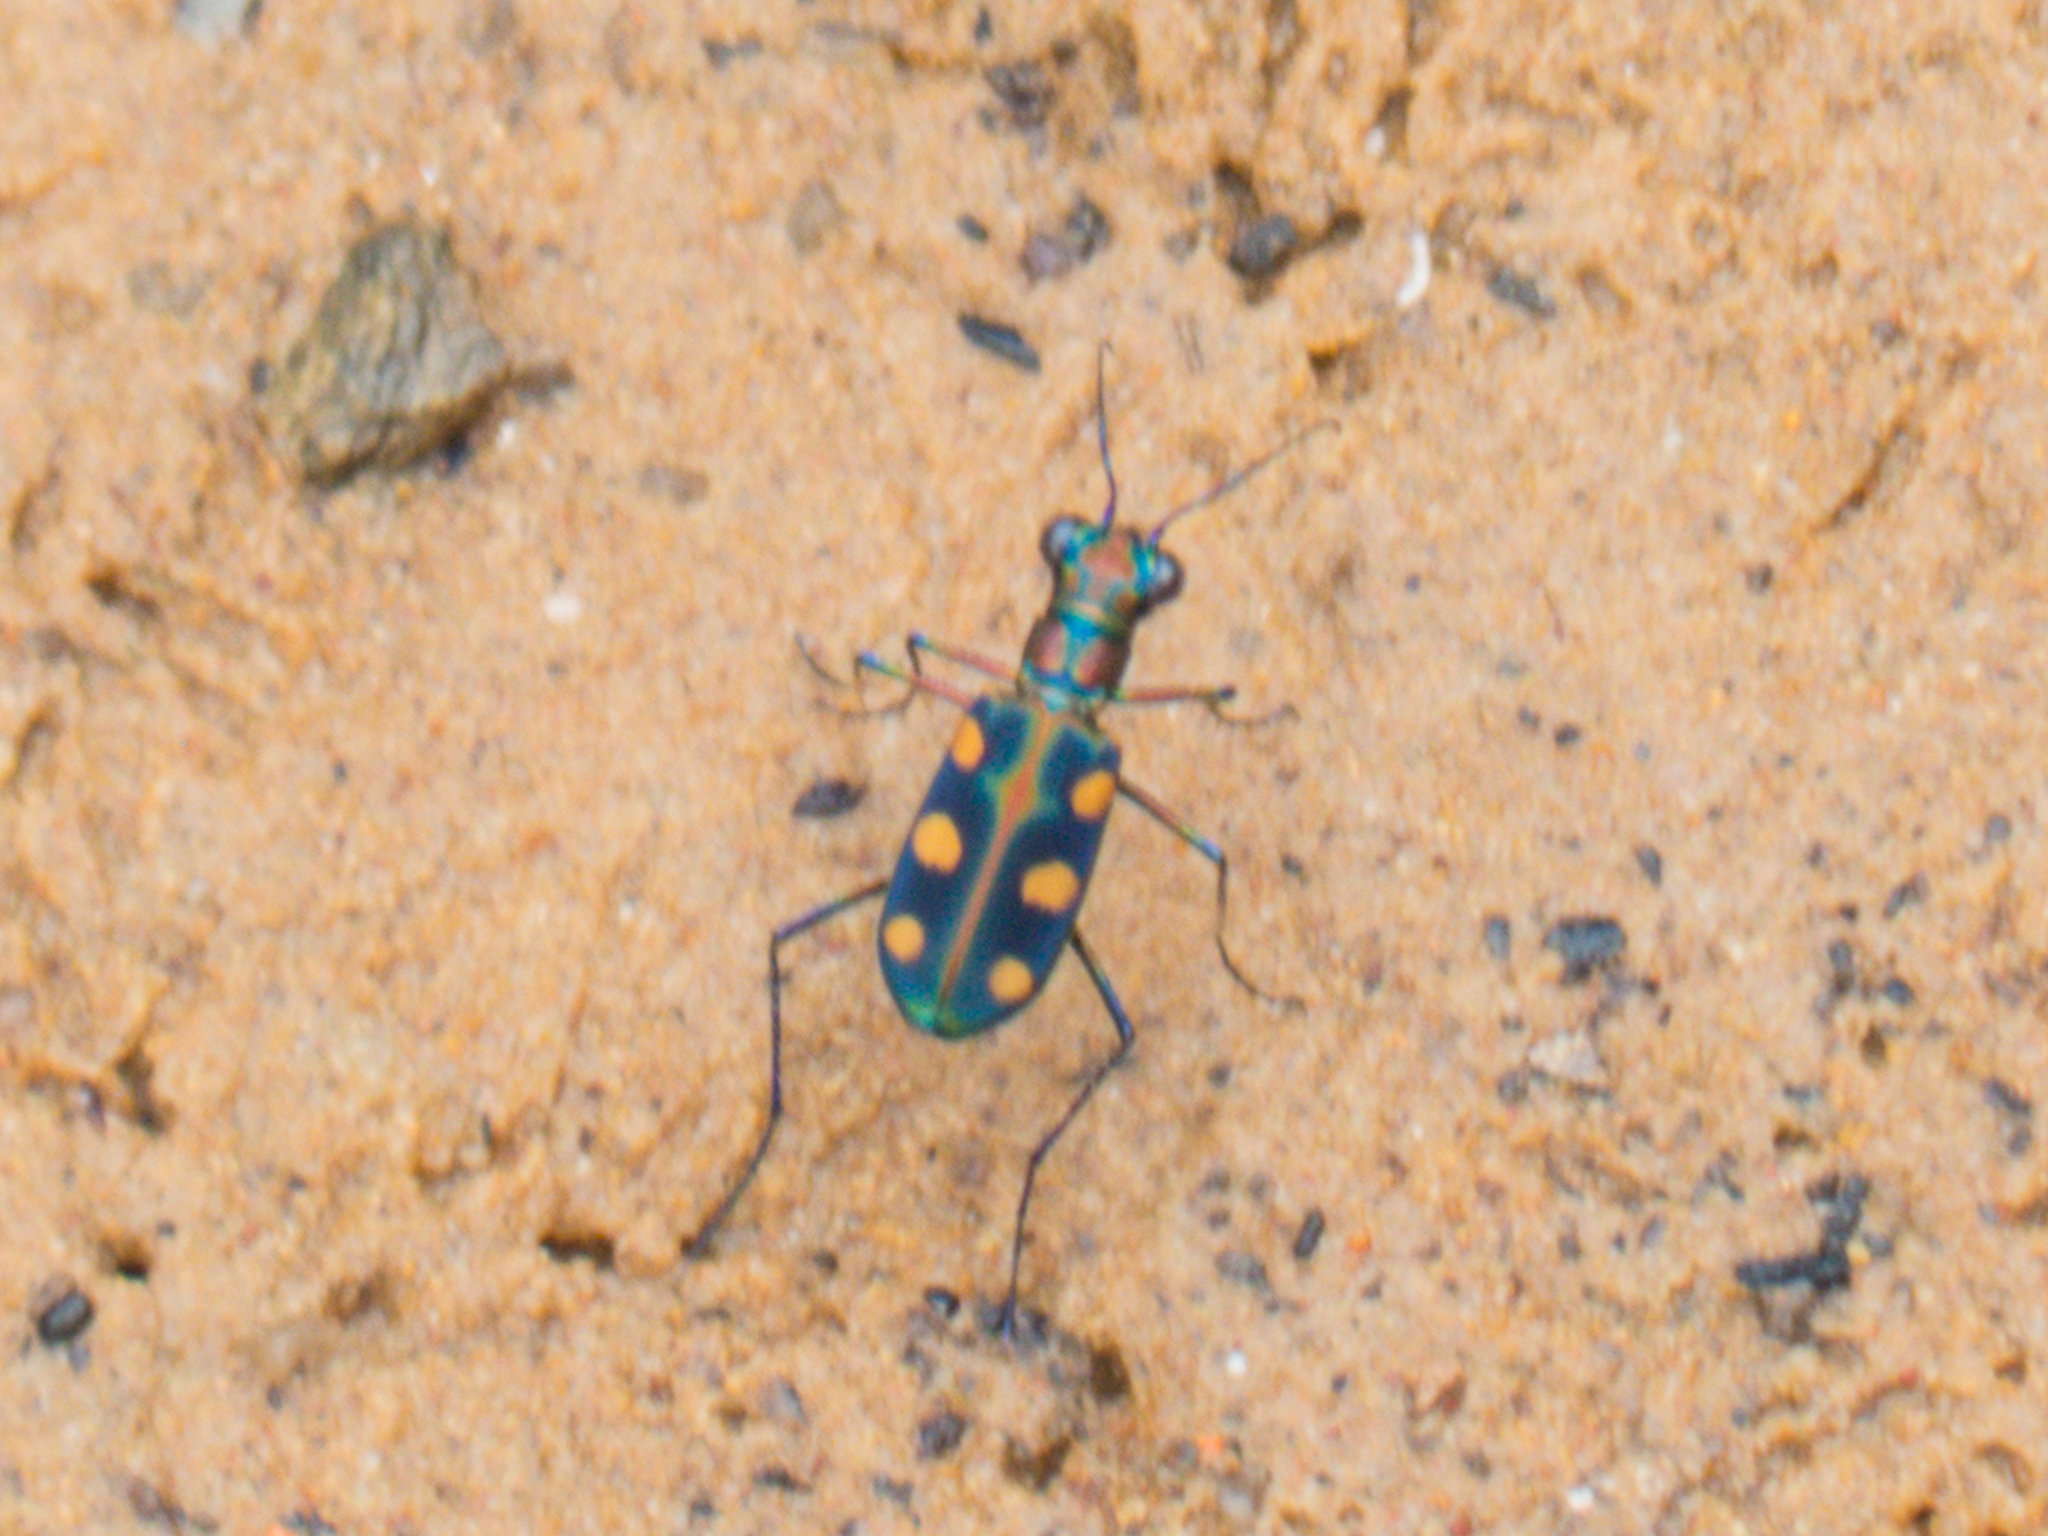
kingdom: Animalia
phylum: Arthropoda
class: Insecta
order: Coleoptera
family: Carabidae
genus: Cicindela
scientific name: Cicindela juxtata
